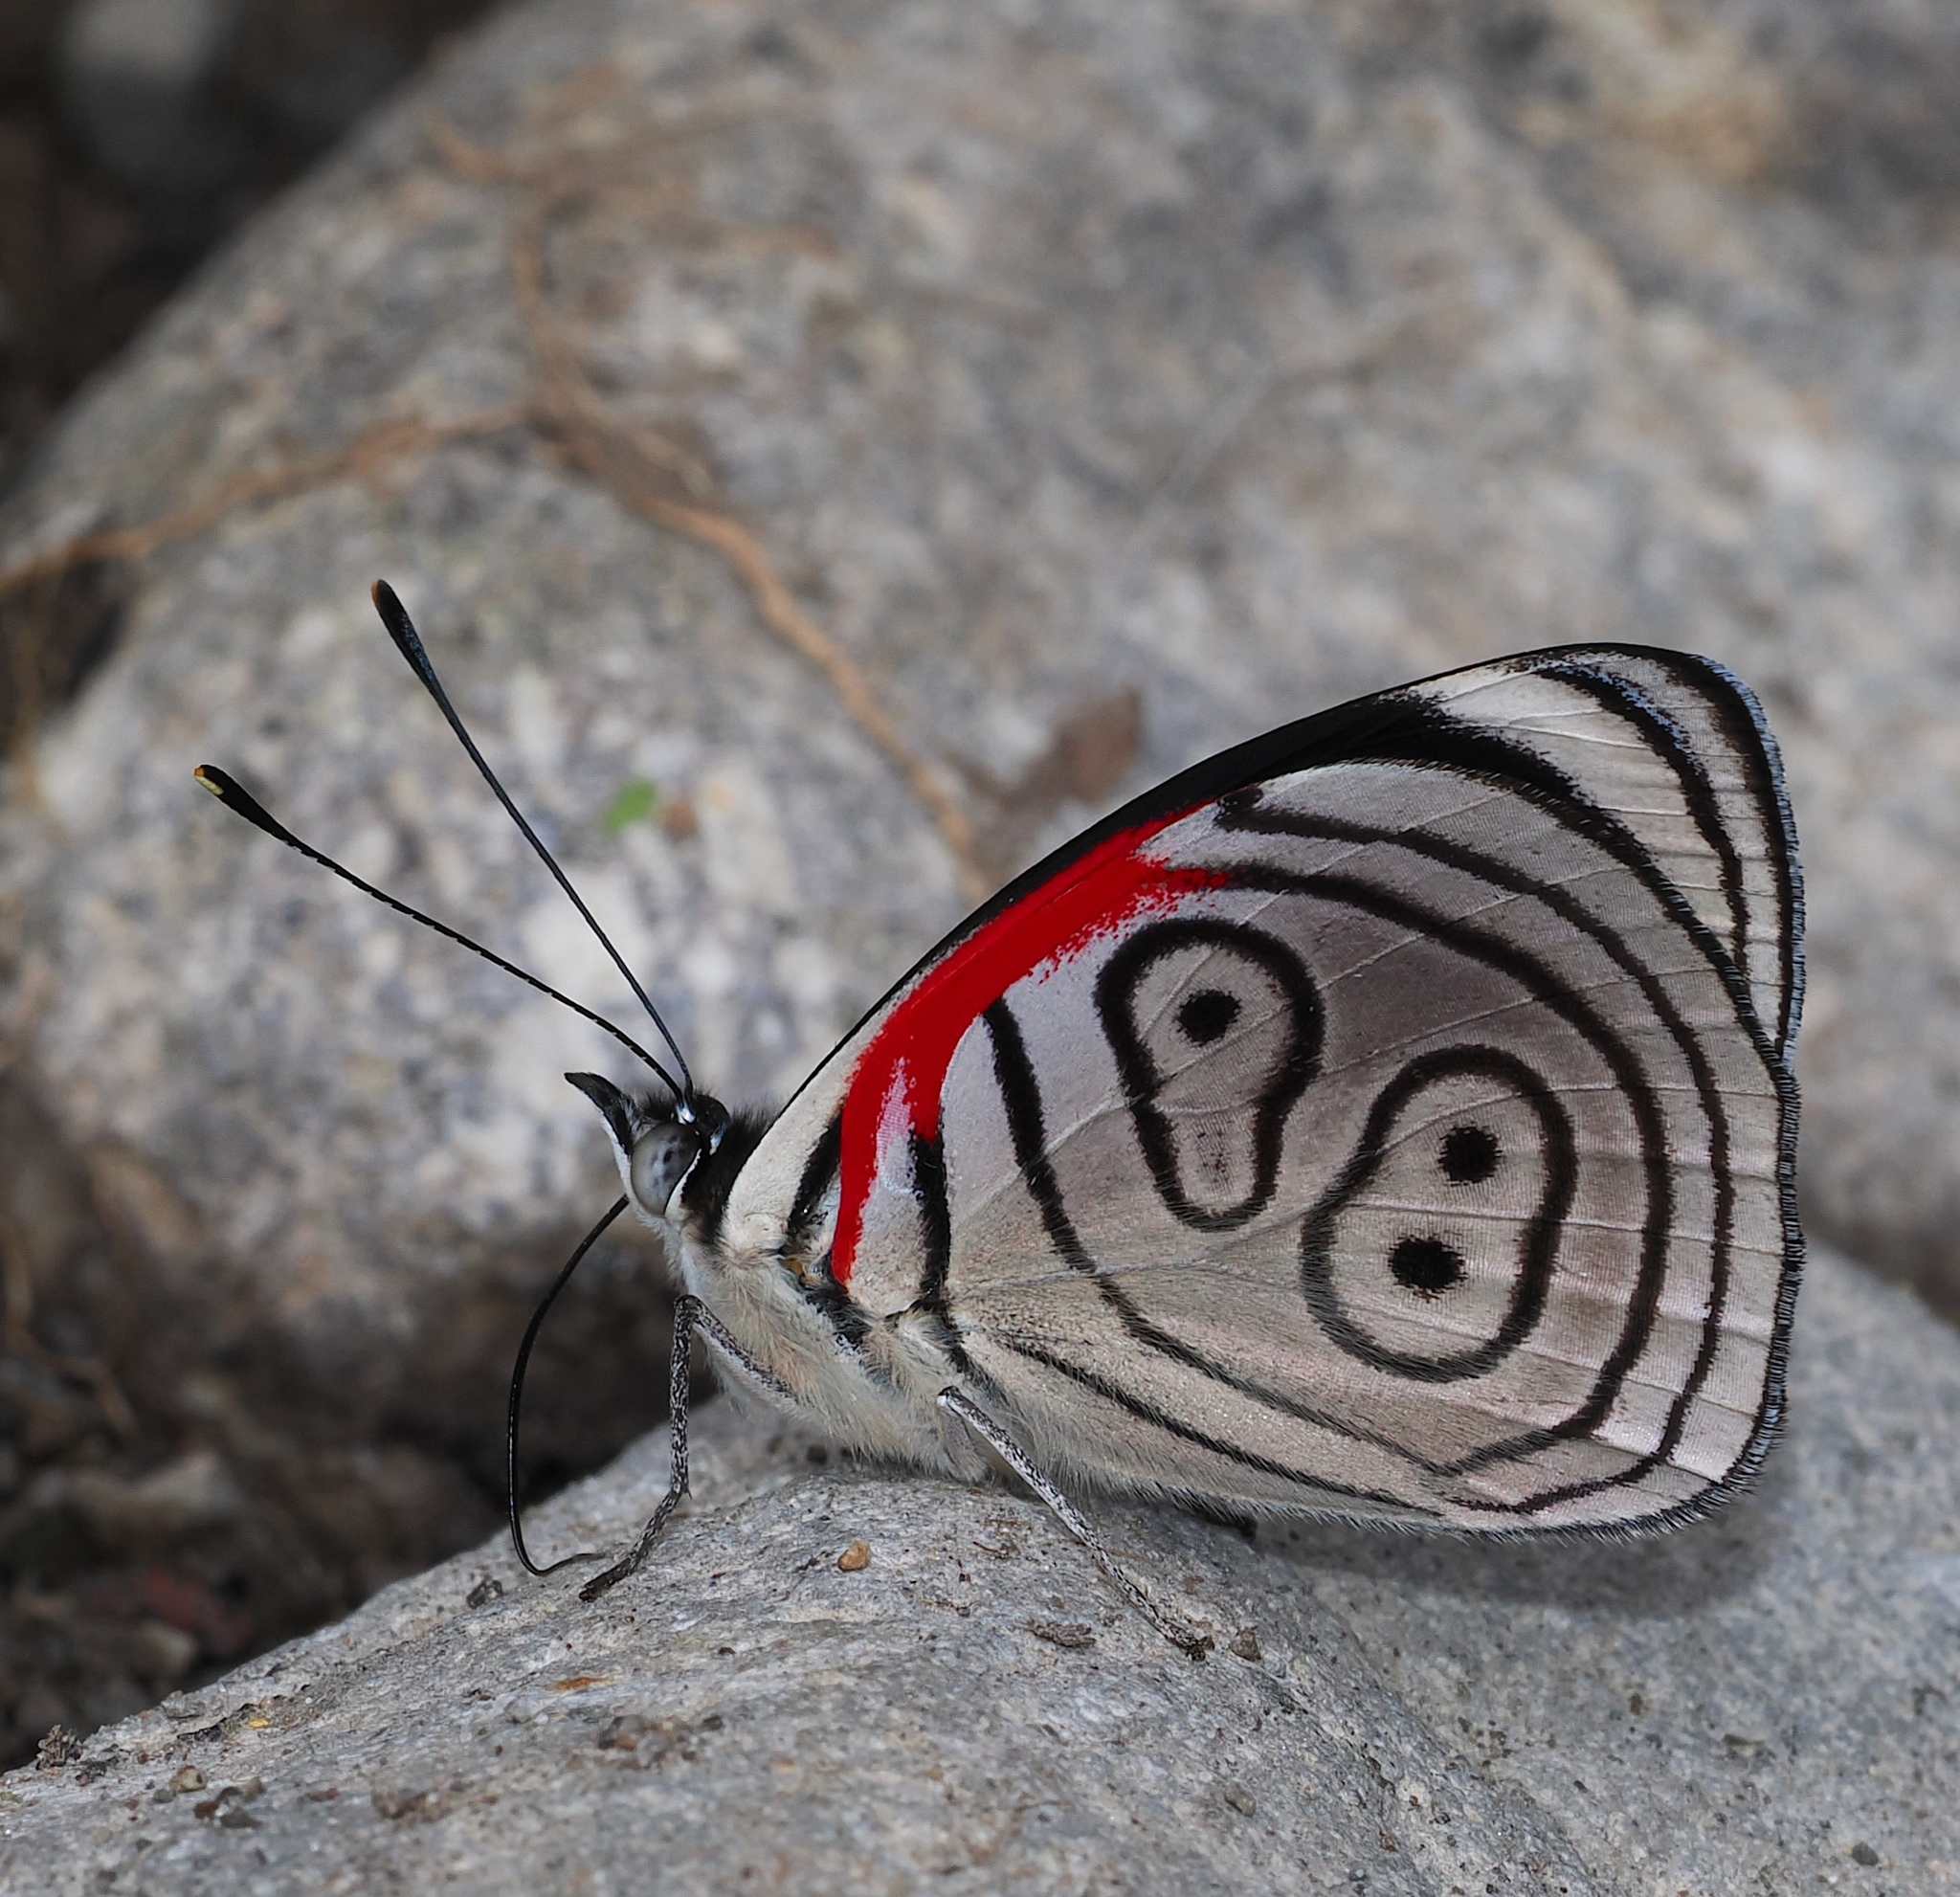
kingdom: Animalia
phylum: Arthropoda
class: Insecta
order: Lepidoptera
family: Nymphalidae
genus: Diaethria
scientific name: Diaethria euclides
